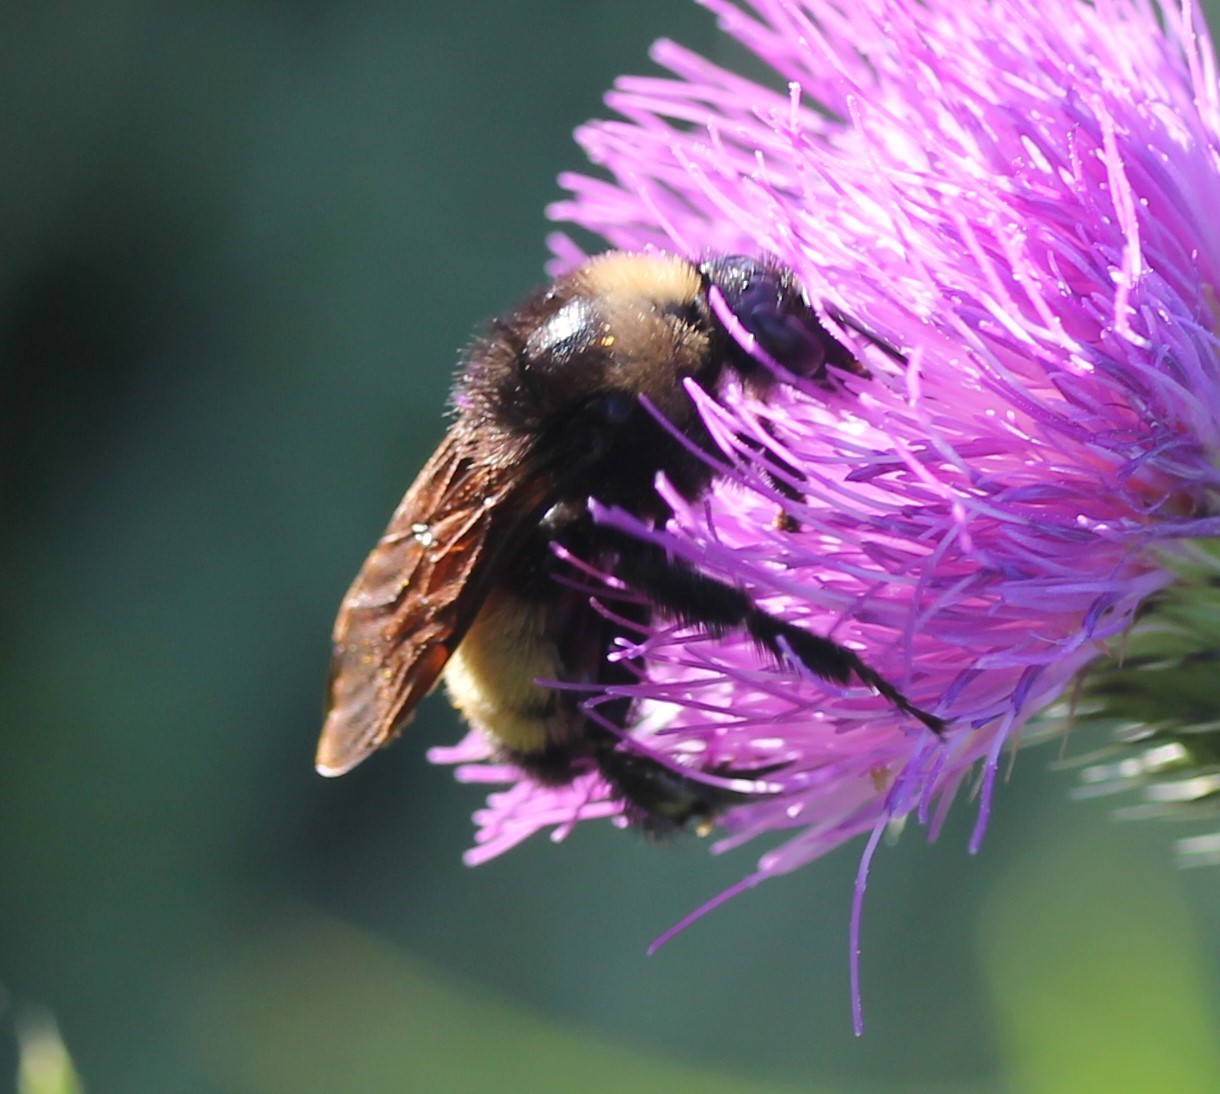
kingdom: Animalia
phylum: Arthropoda
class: Insecta
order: Hymenoptera
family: Apidae
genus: Bombus
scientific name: Bombus pensylvanicus
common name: Bumble bee
